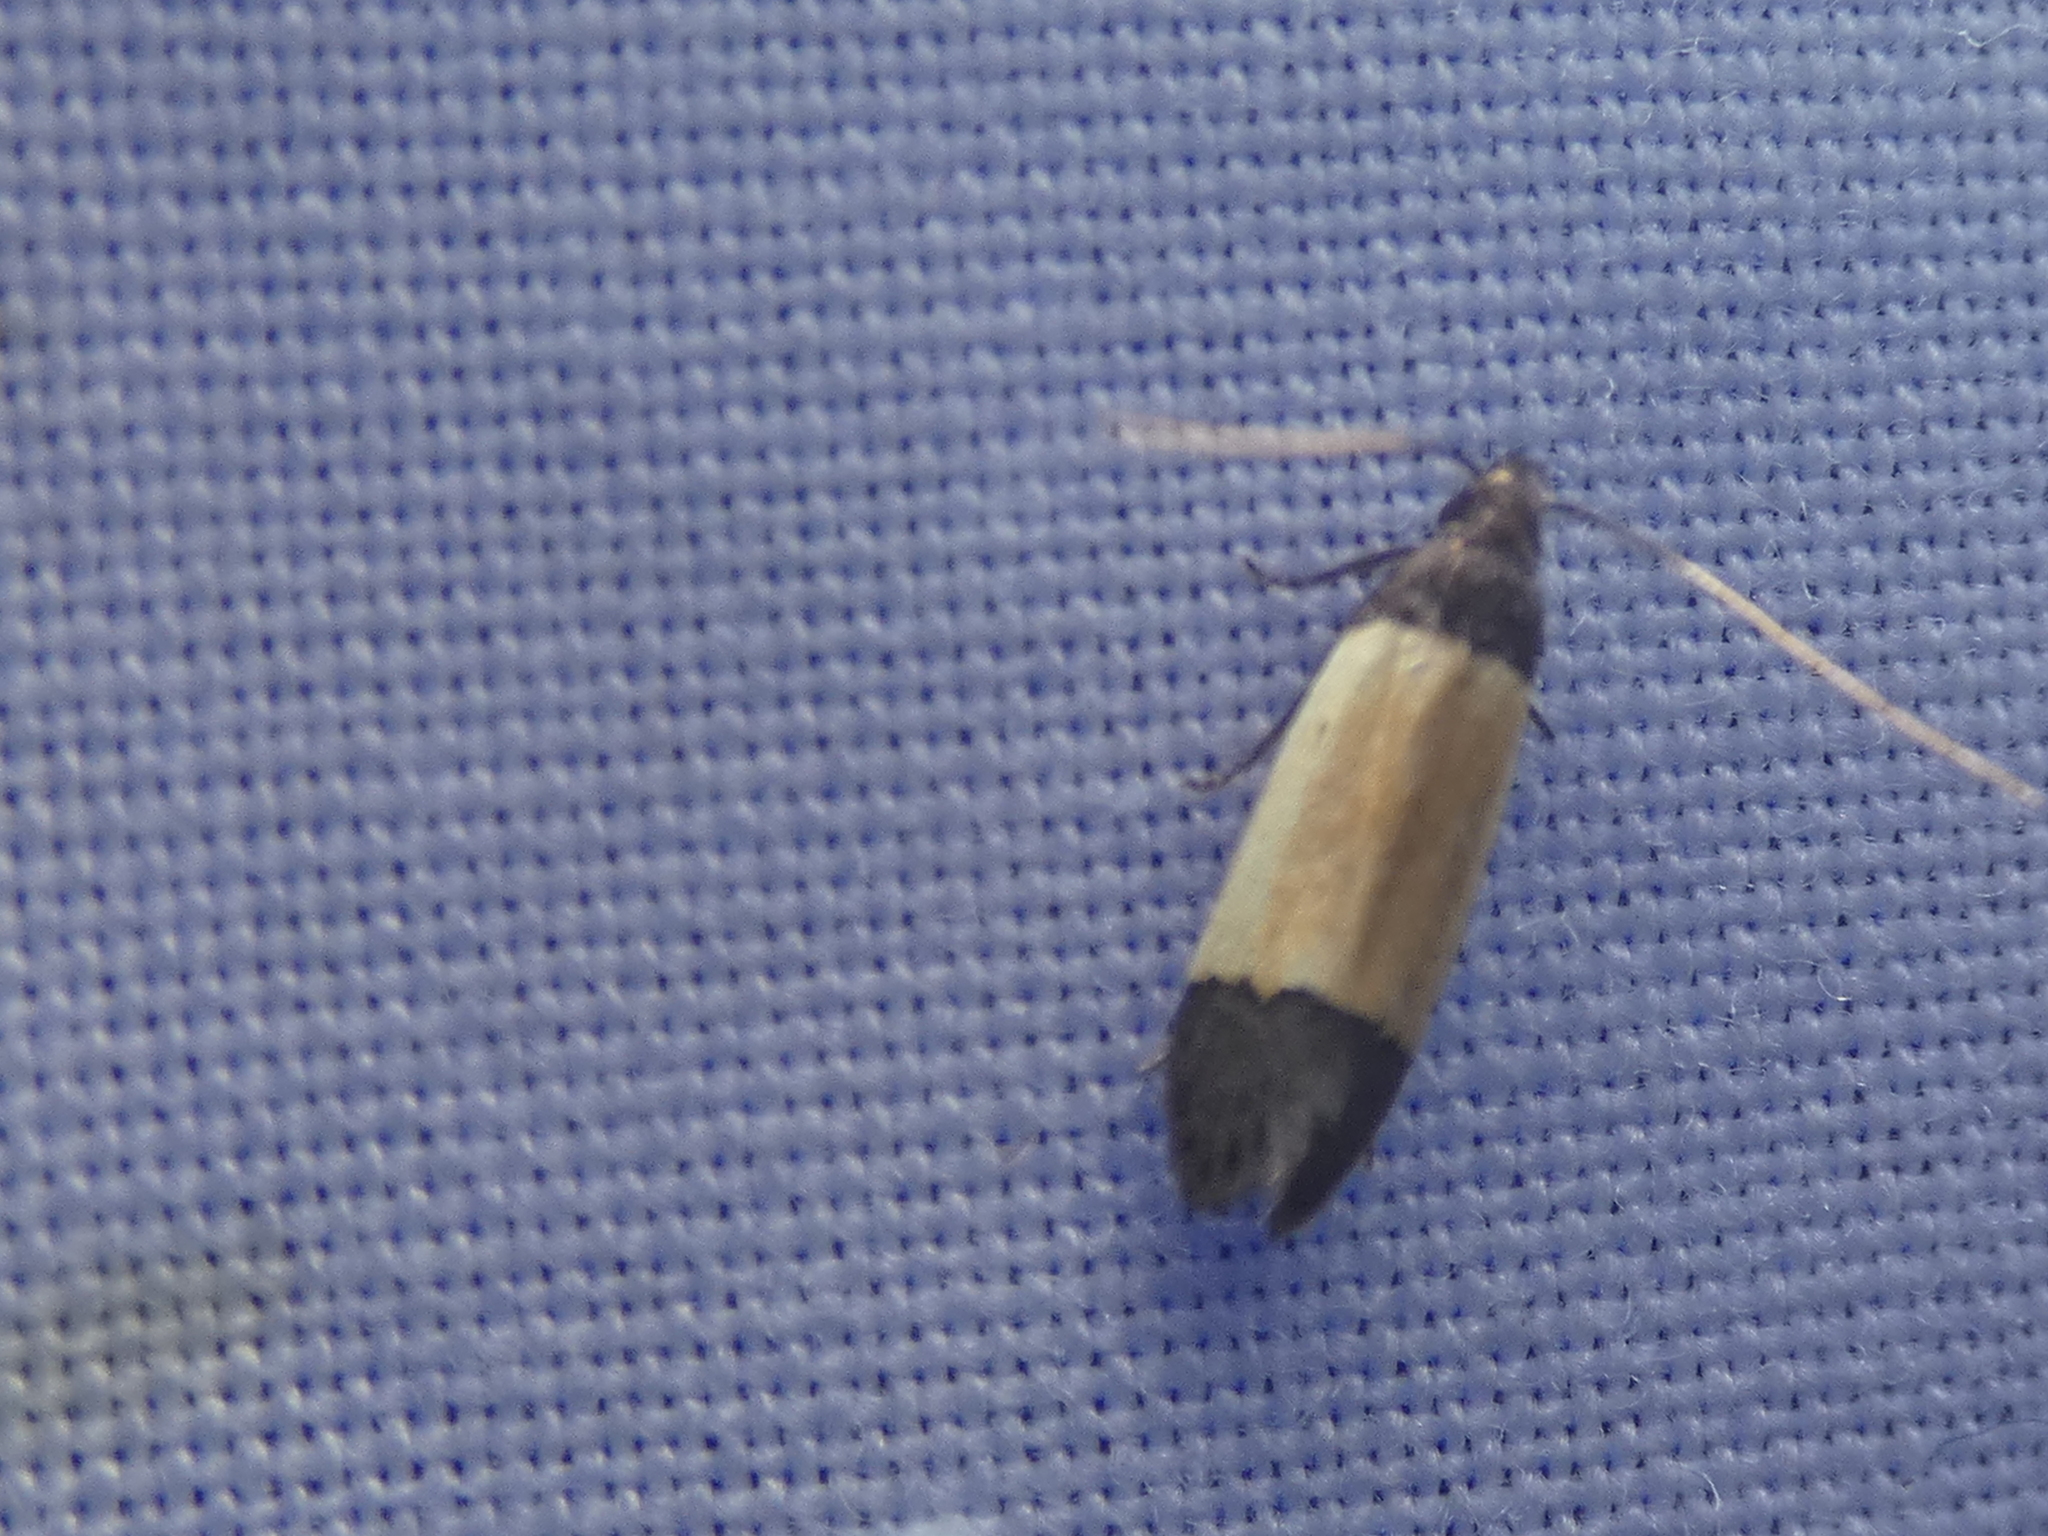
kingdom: Animalia
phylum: Arthropoda
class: Insecta
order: Lepidoptera
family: Gelechiidae
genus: Anacampsis
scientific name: Anacampsis coverdalella
